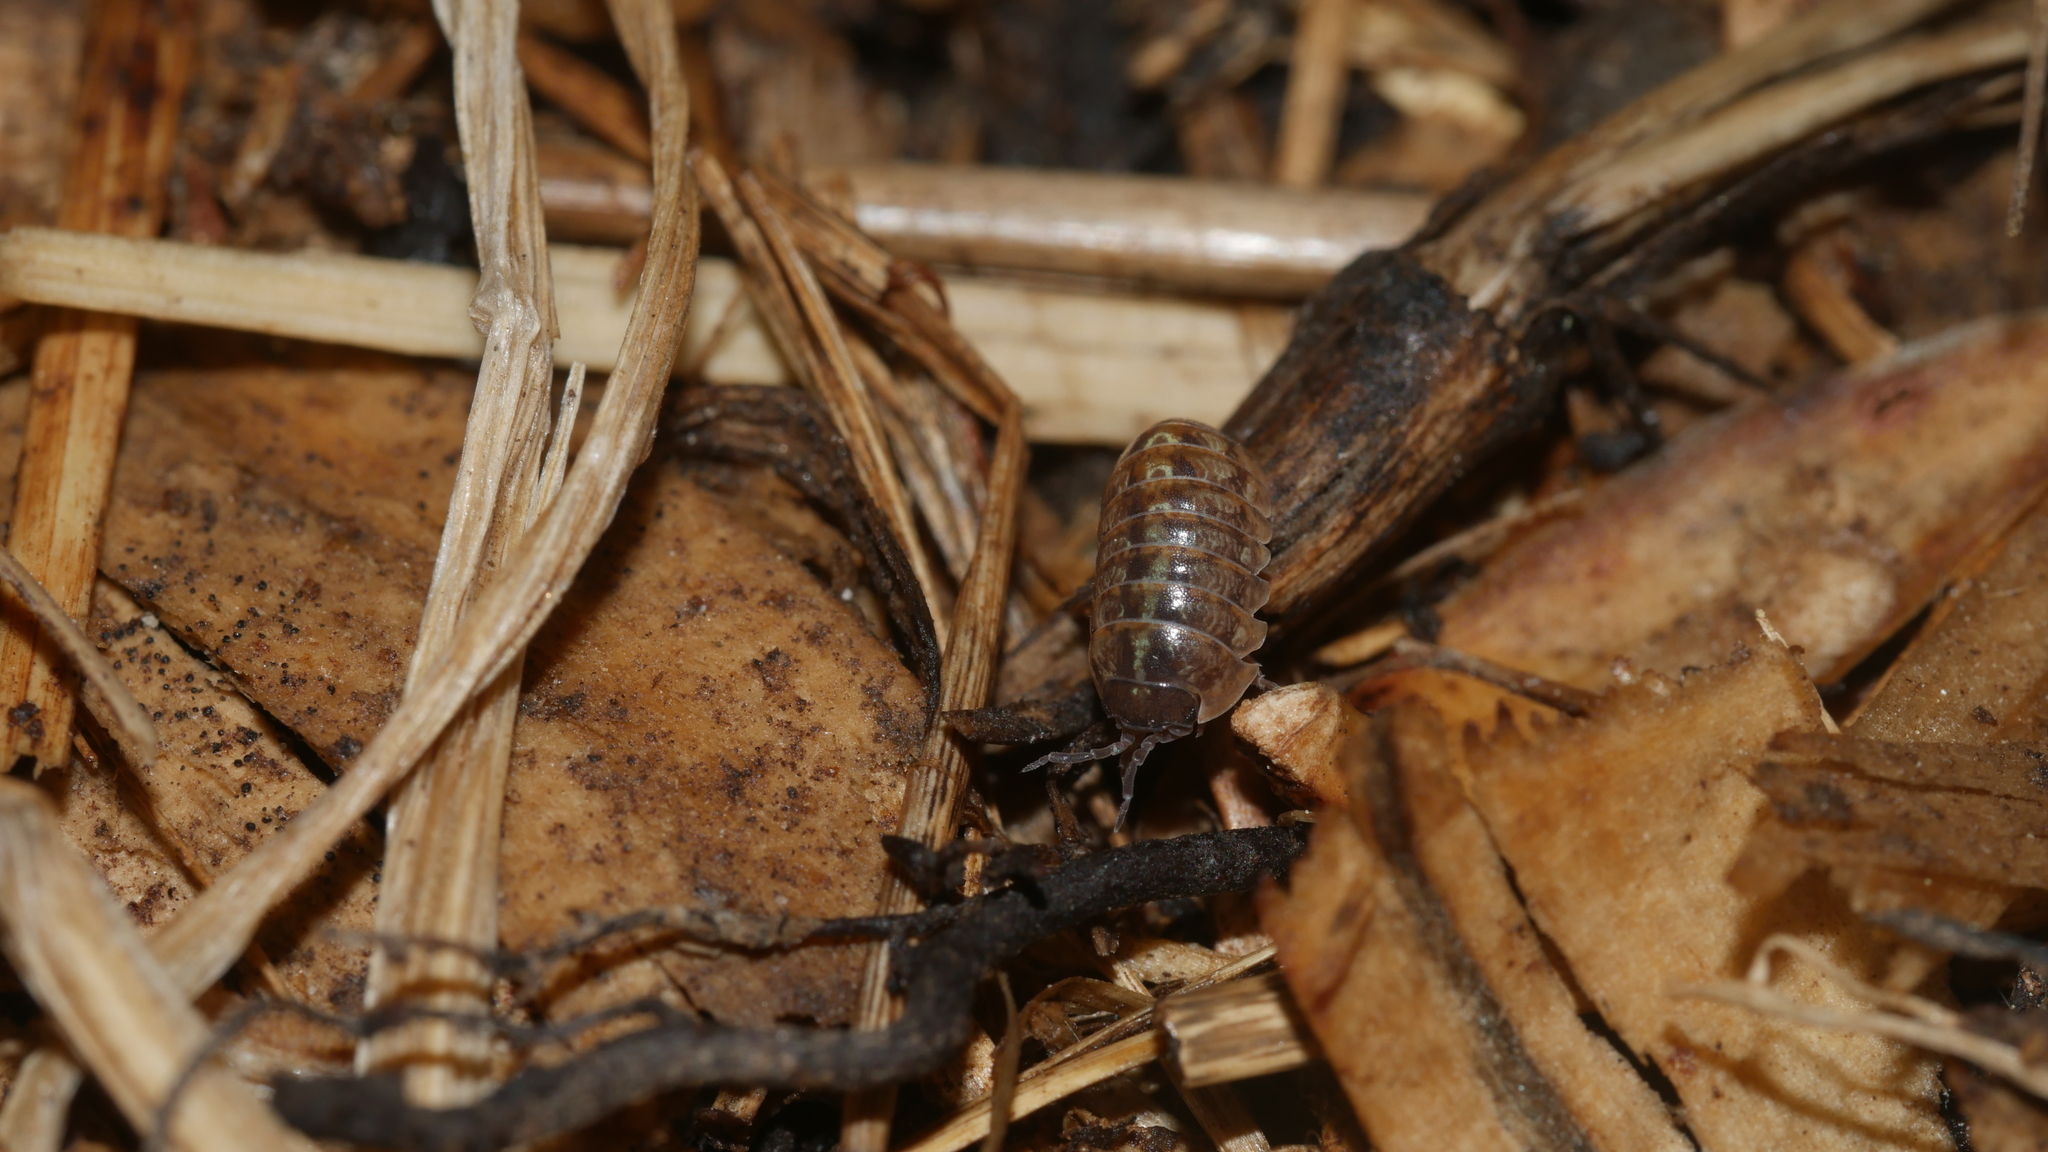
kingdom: Animalia
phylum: Arthropoda
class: Malacostraca
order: Isopoda
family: Armadillidiidae
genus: Armadillidium
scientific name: Armadillidium vulgare
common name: Common pill woodlouse
